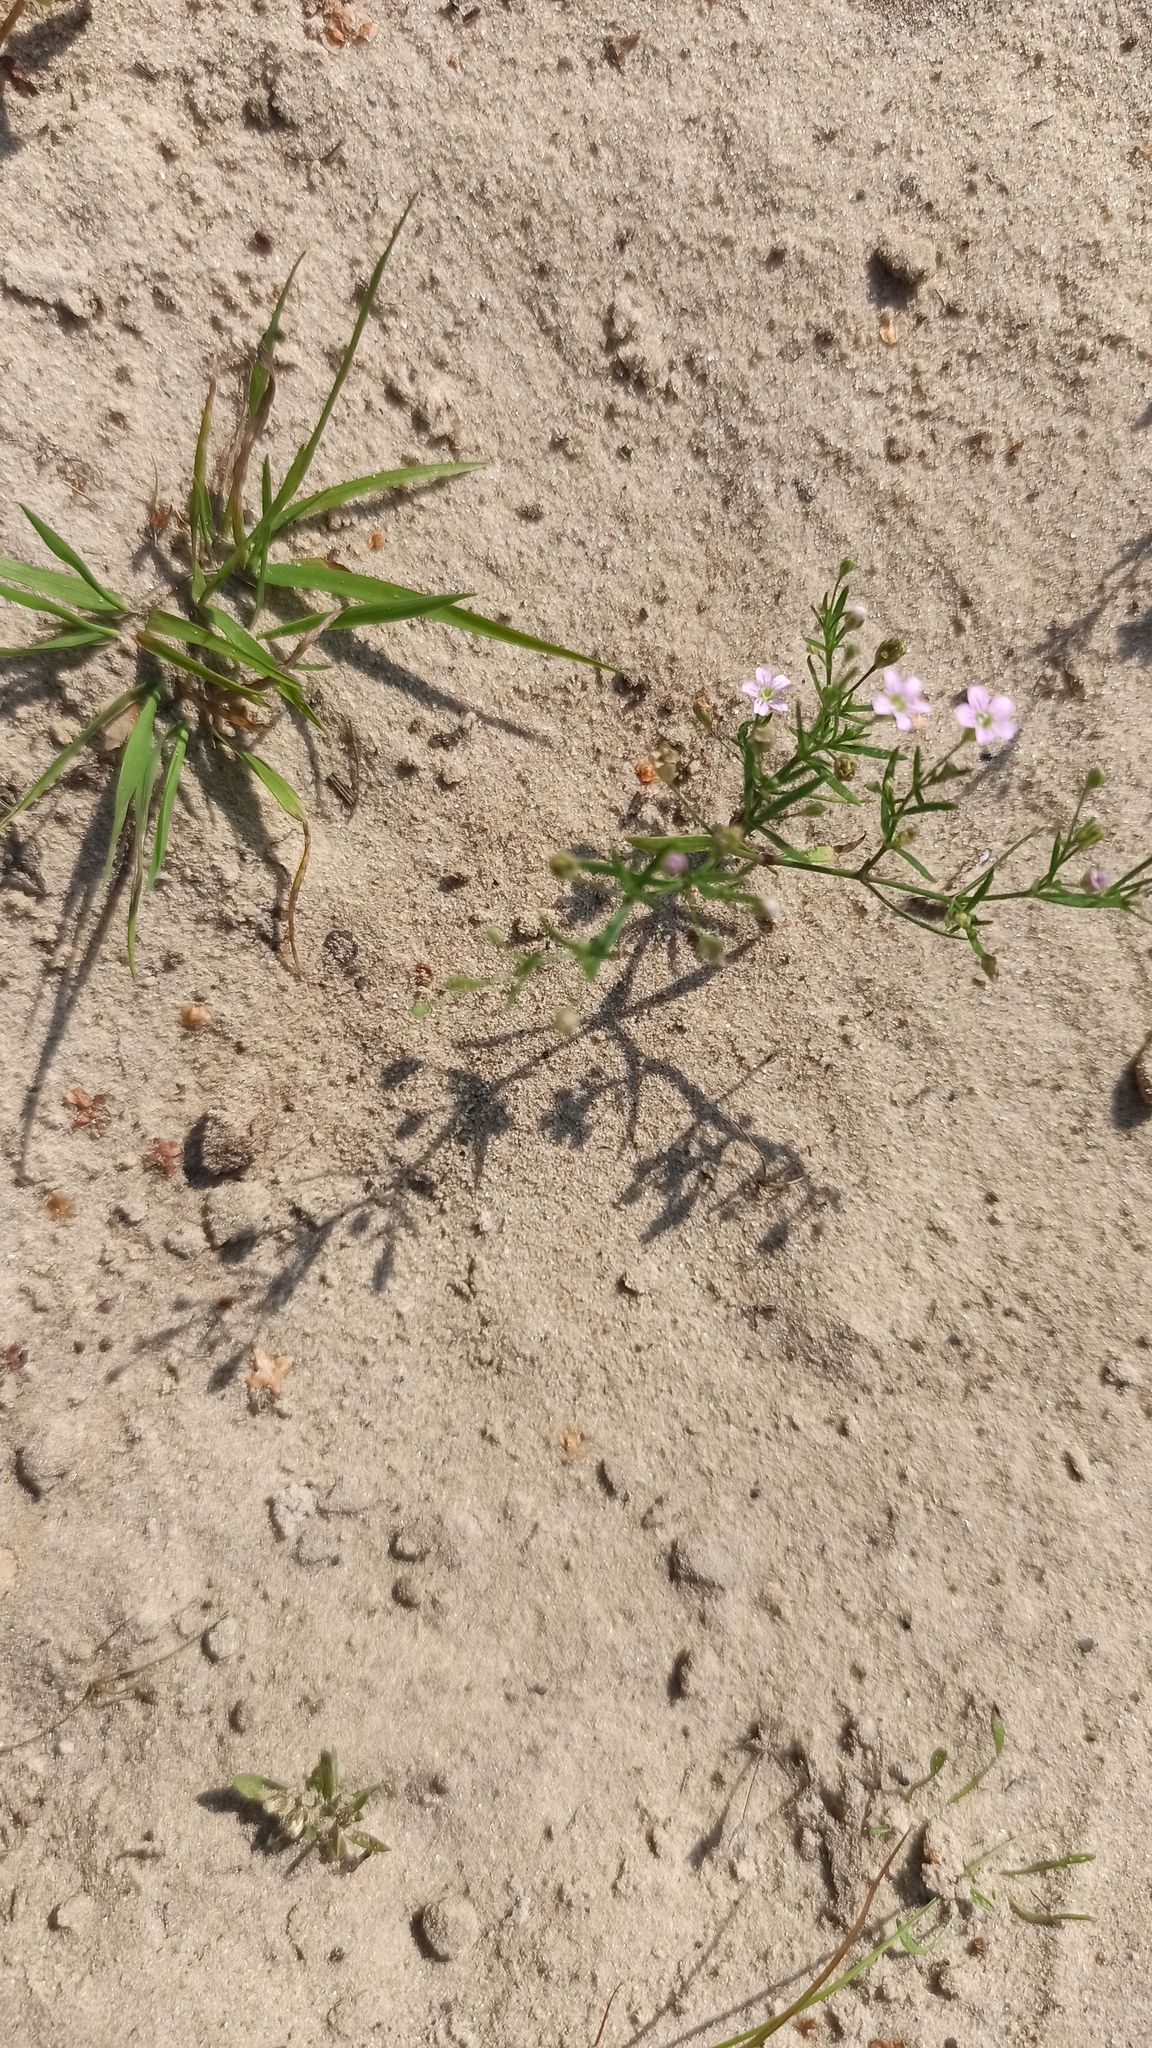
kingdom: Plantae
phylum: Tracheophyta
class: Magnoliopsida
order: Caryophyllales
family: Caryophyllaceae
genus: Psammophiliella
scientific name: Psammophiliella muralis
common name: Cushion baby's-breath
